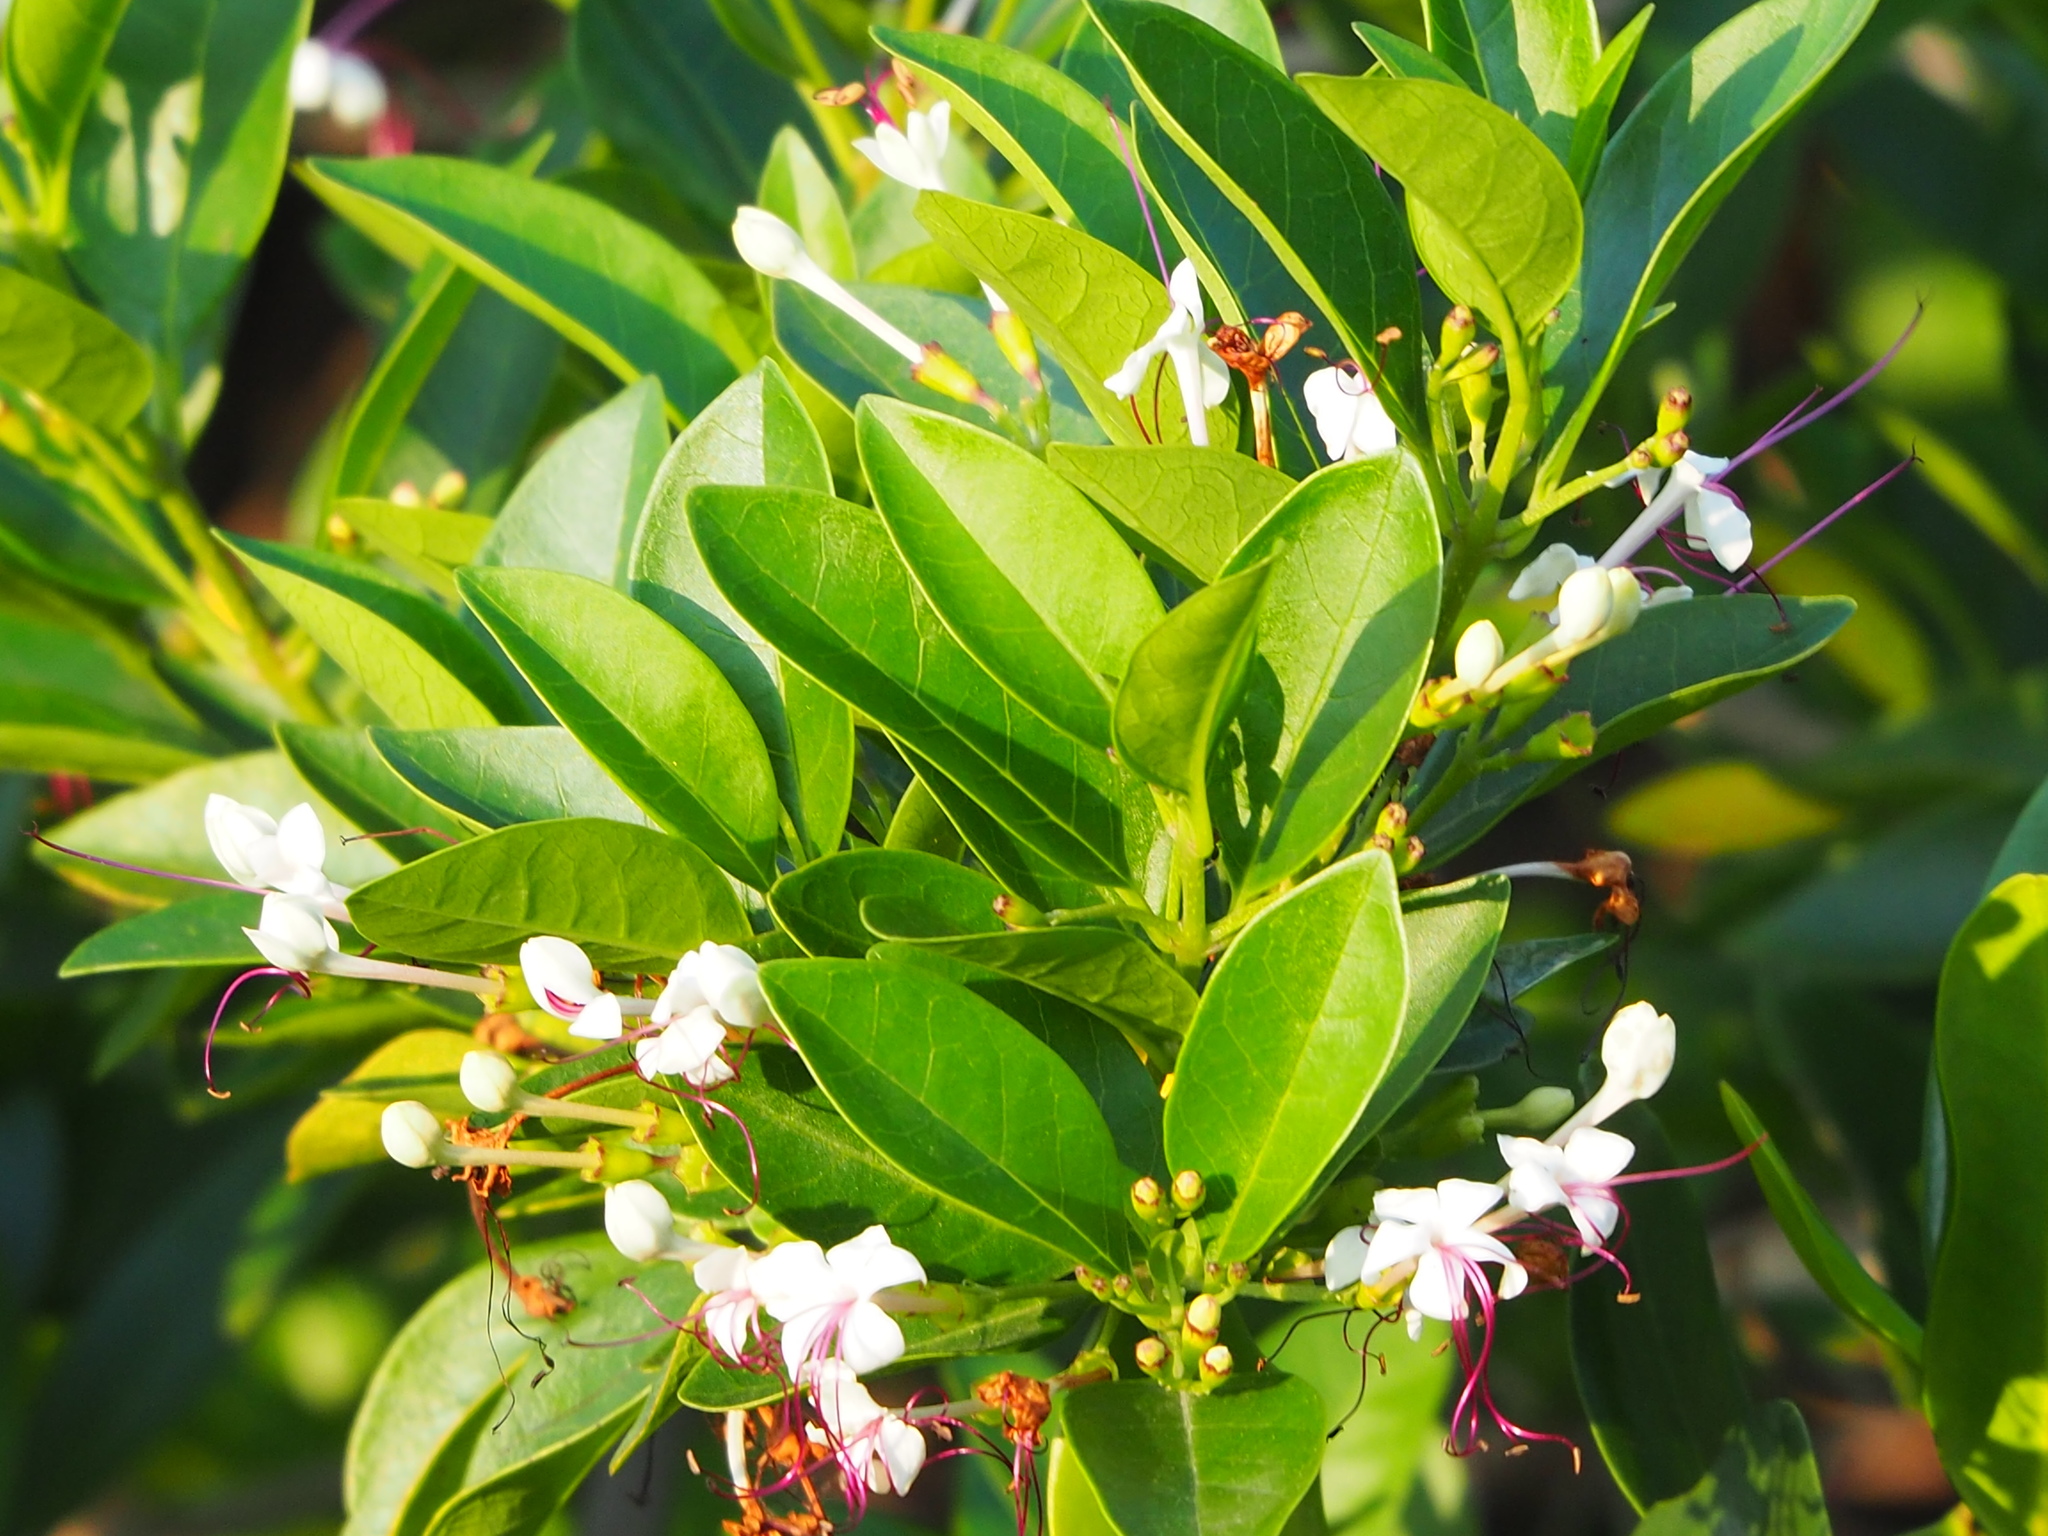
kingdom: Plantae
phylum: Tracheophyta
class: Magnoliopsida
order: Lamiales
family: Lamiaceae
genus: Volkameria
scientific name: Volkameria inermis
